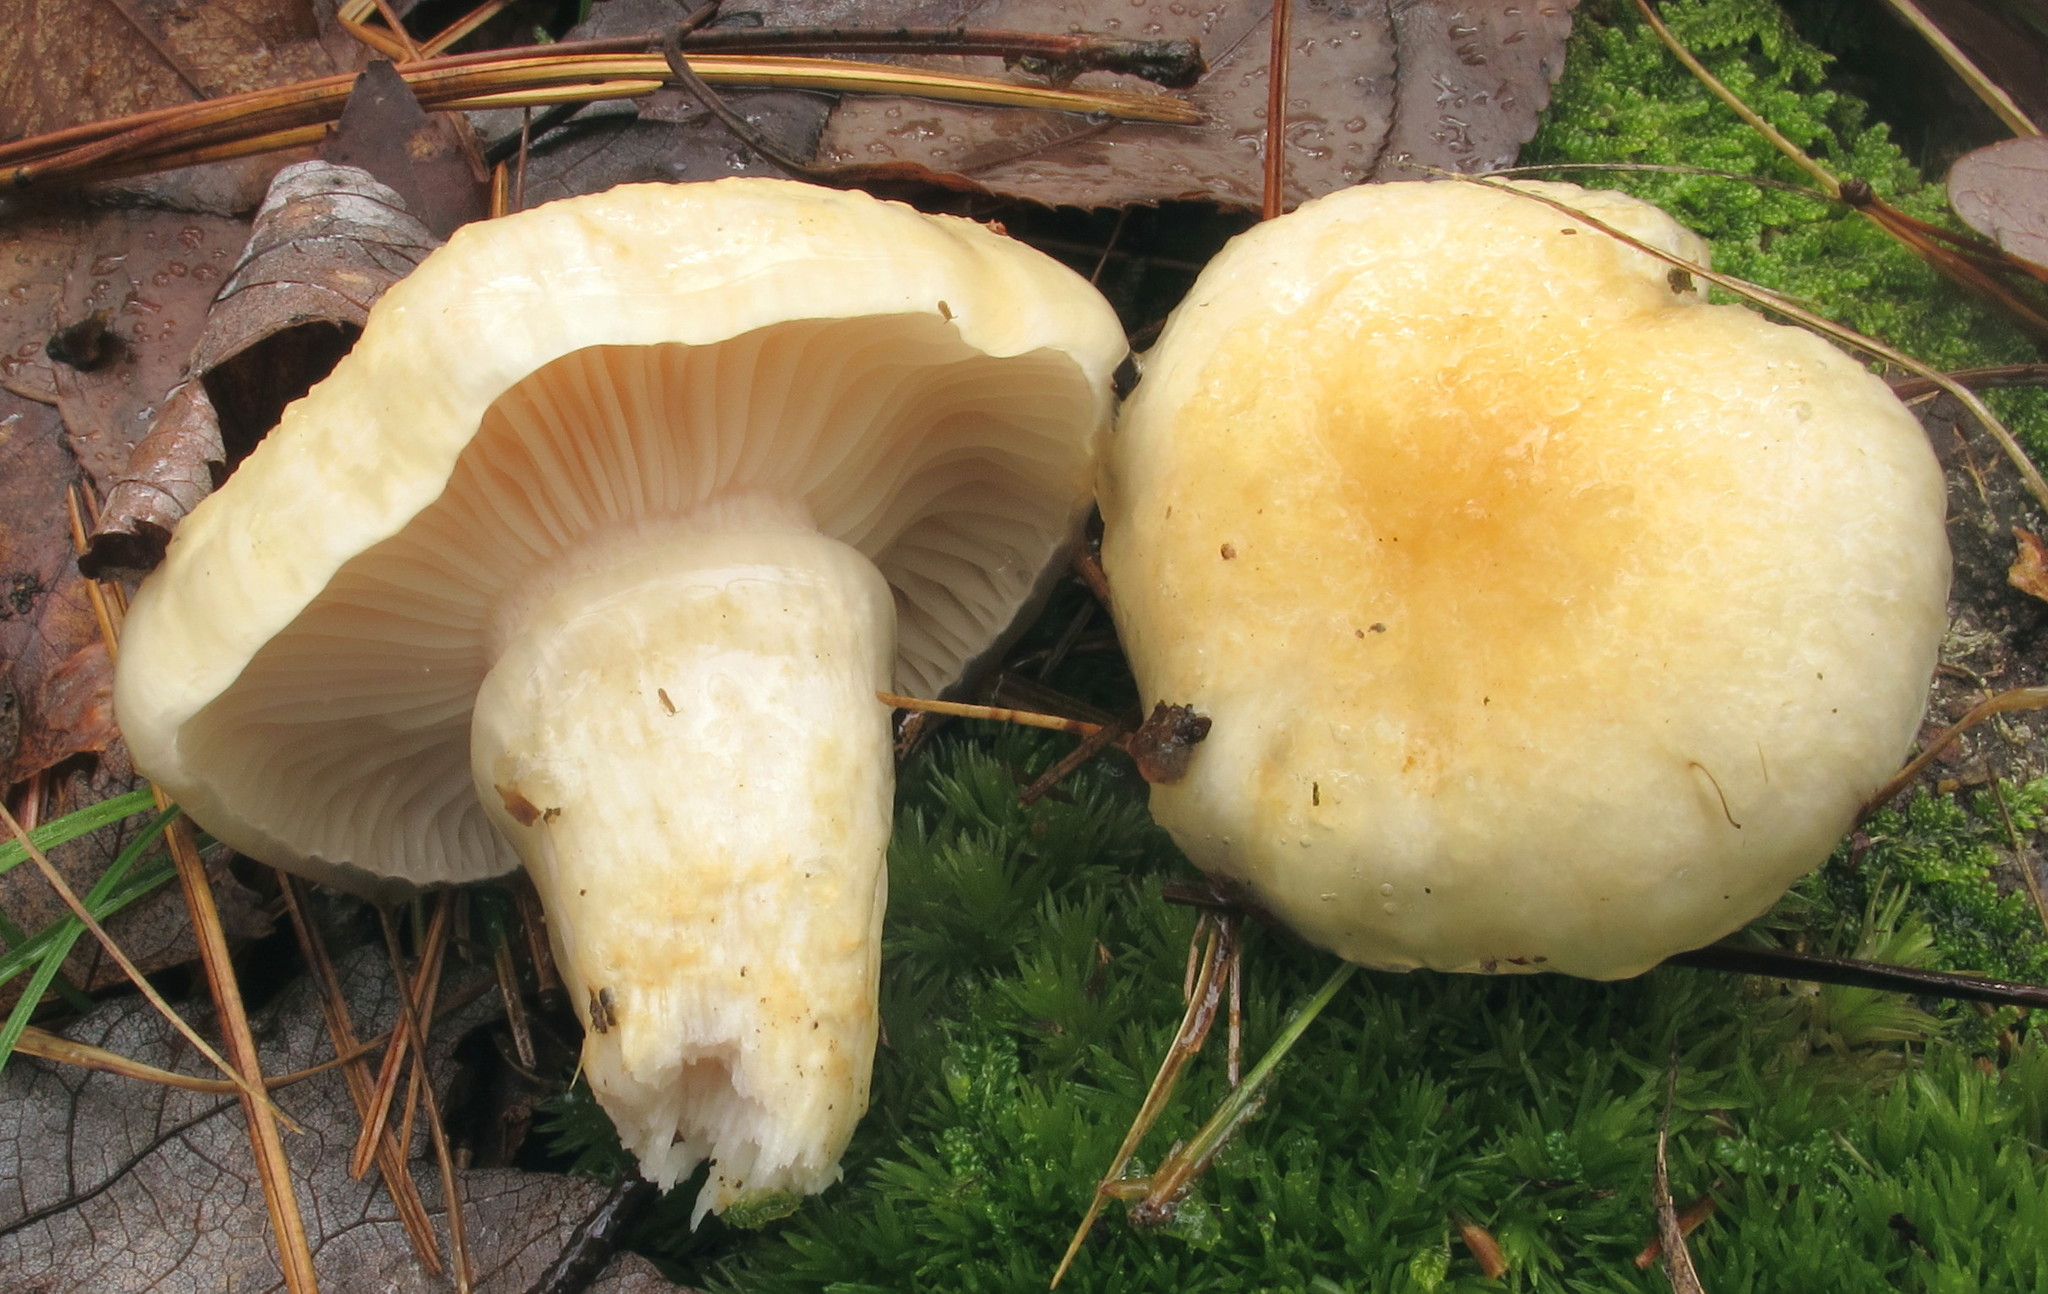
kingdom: Fungi
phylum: Basidiomycota
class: Agaricomycetes
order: Agaricales
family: Hygrophoraceae
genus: Hygrophorus
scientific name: Hygrophorus ligatus
